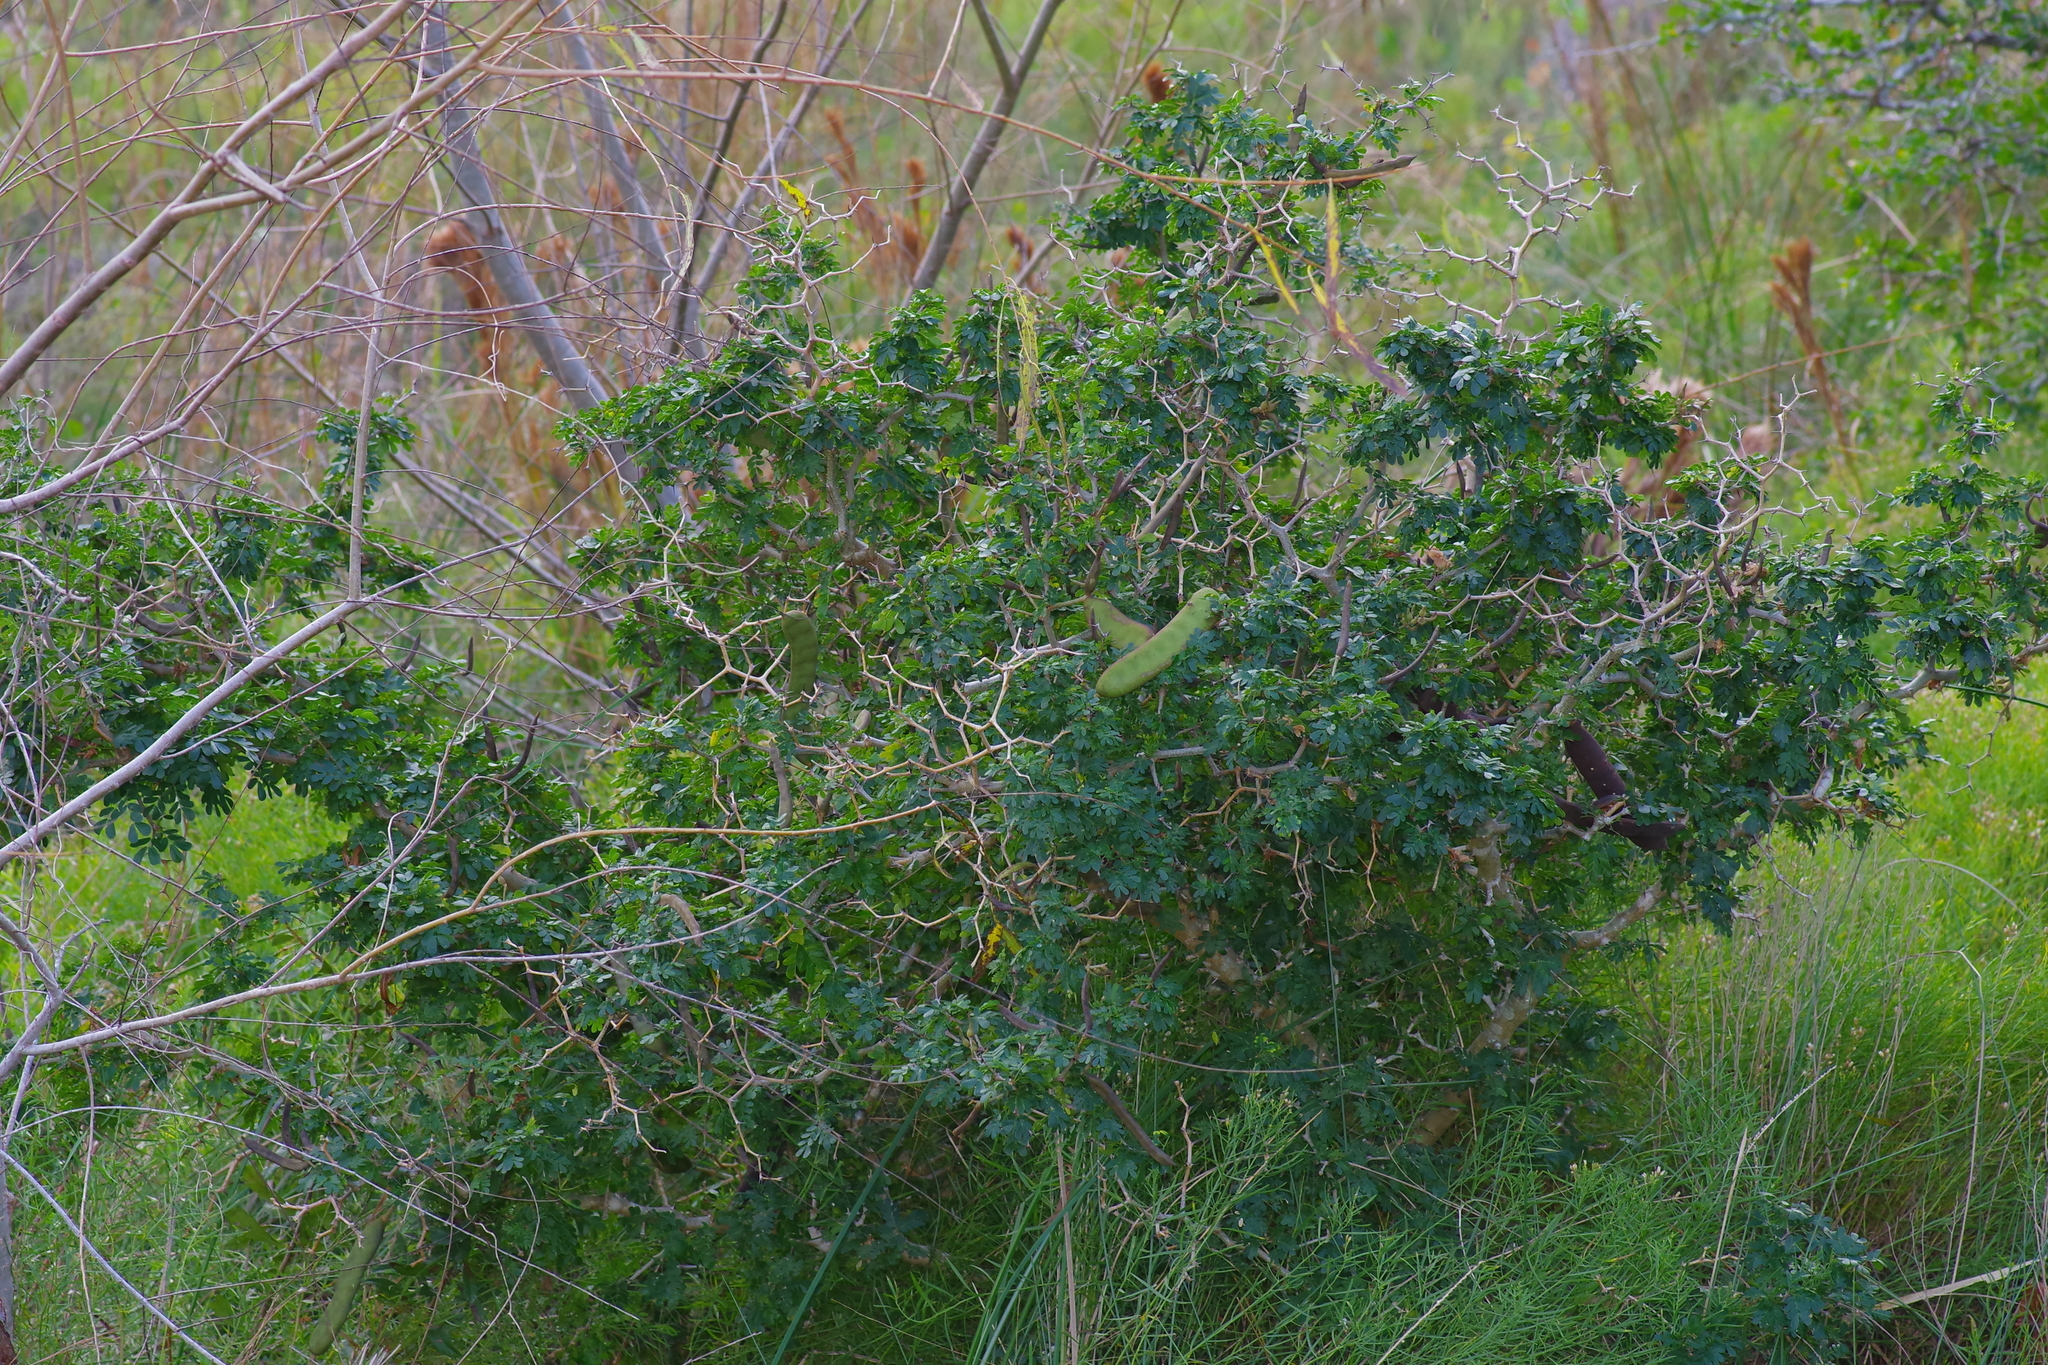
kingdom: Plantae
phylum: Tracheophyta
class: Magnoliopsida
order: Fabales
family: Fabaceae
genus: Ebenopsis
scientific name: Ebenopsis ebano
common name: Ebony blackbead
